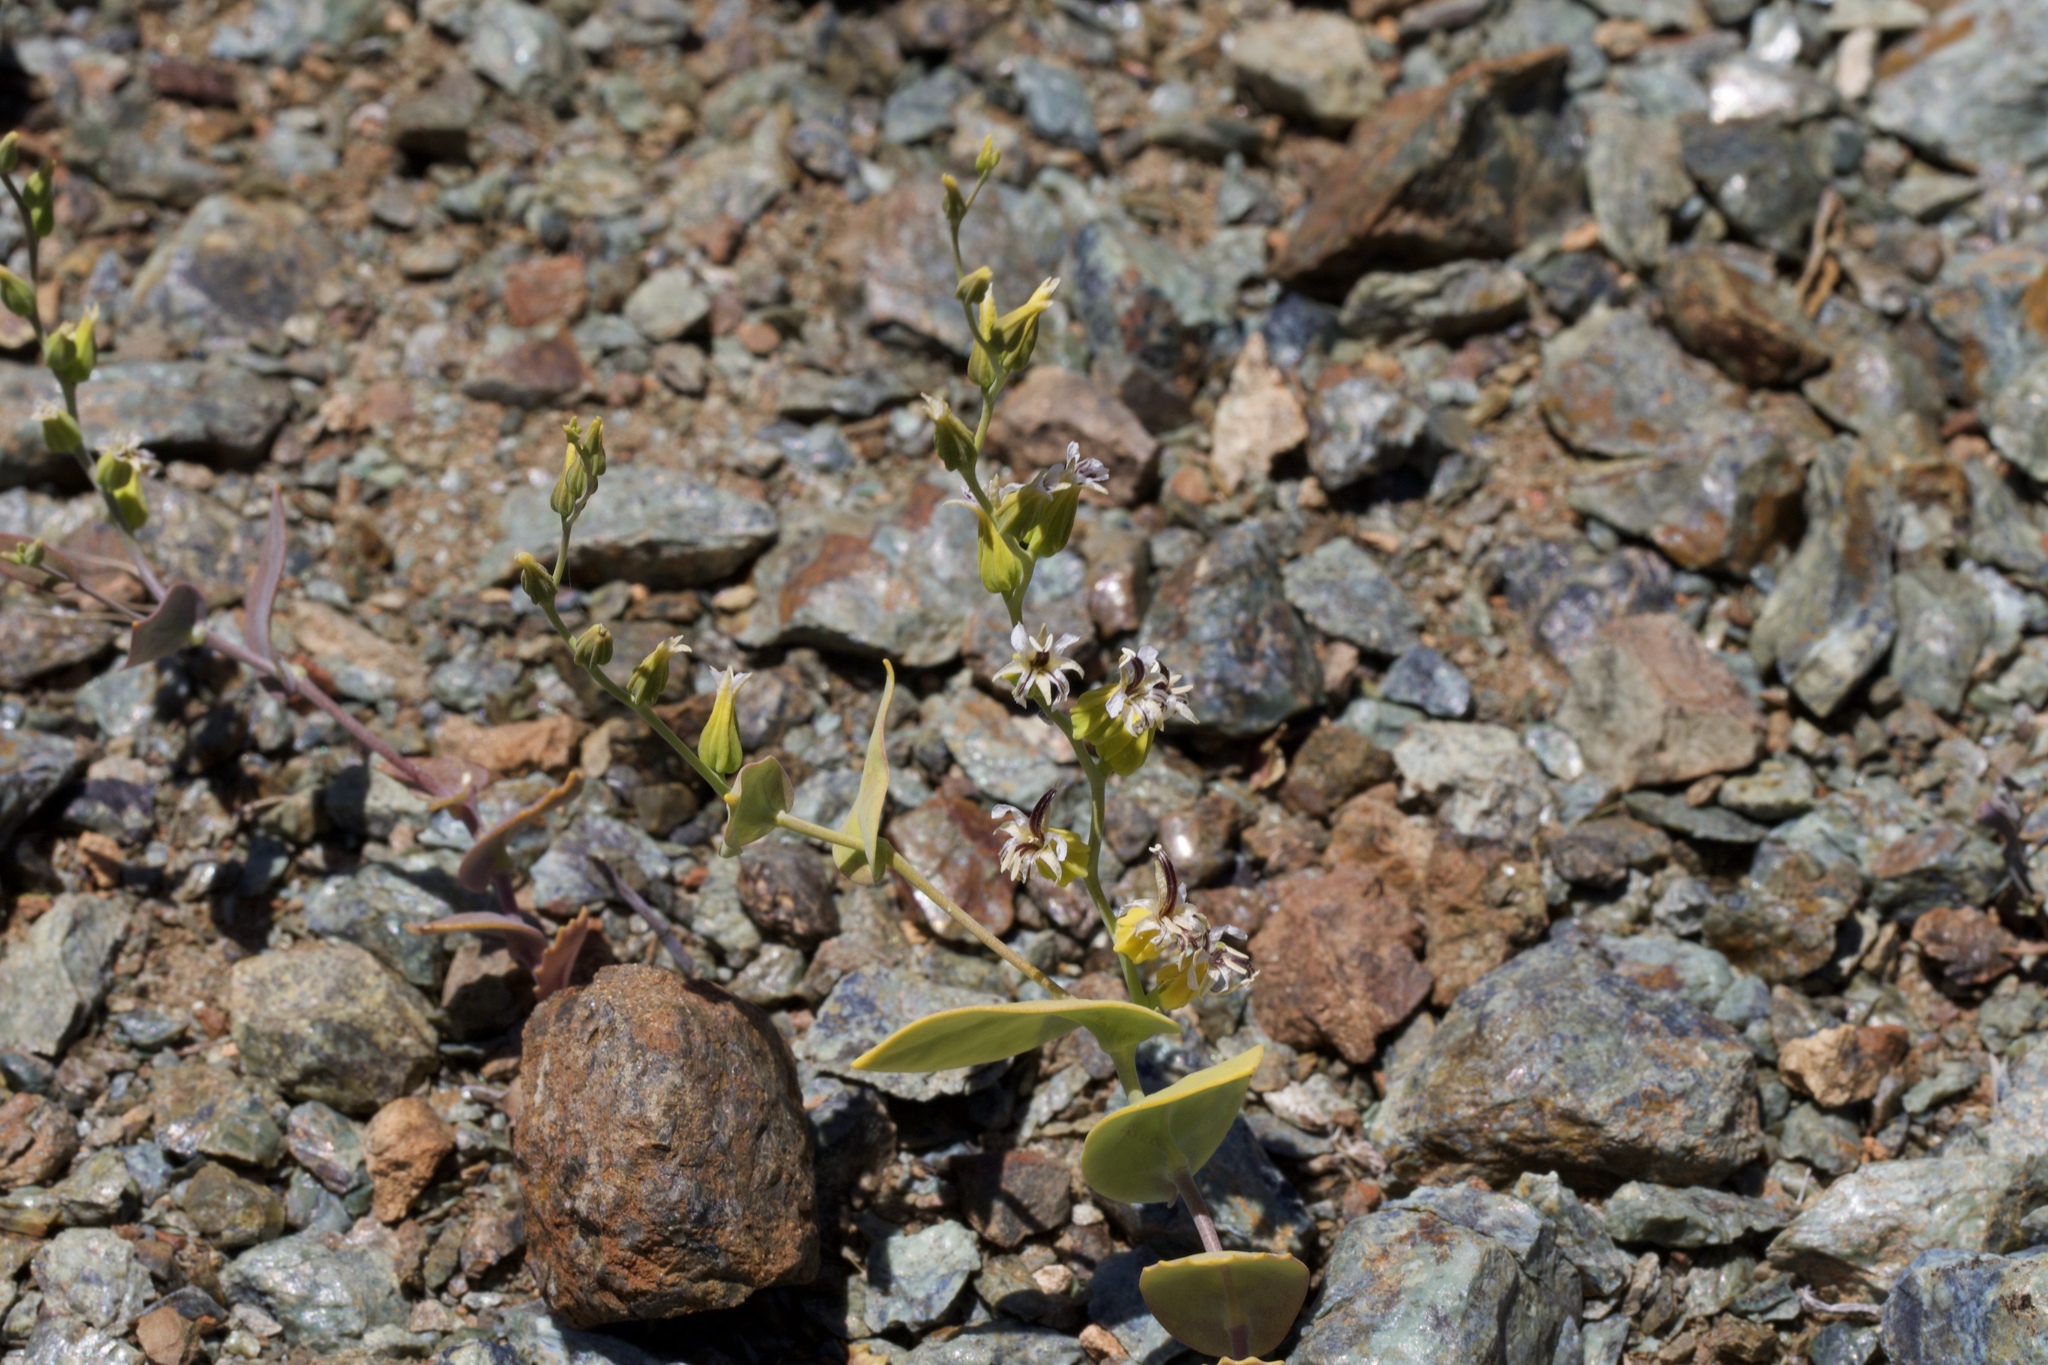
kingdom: Plantae
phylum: Tracheophyta
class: Magnoliopsida
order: Brassicales
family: Brassicaceae
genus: Streptanthus
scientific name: Streptanthus hesperidis
